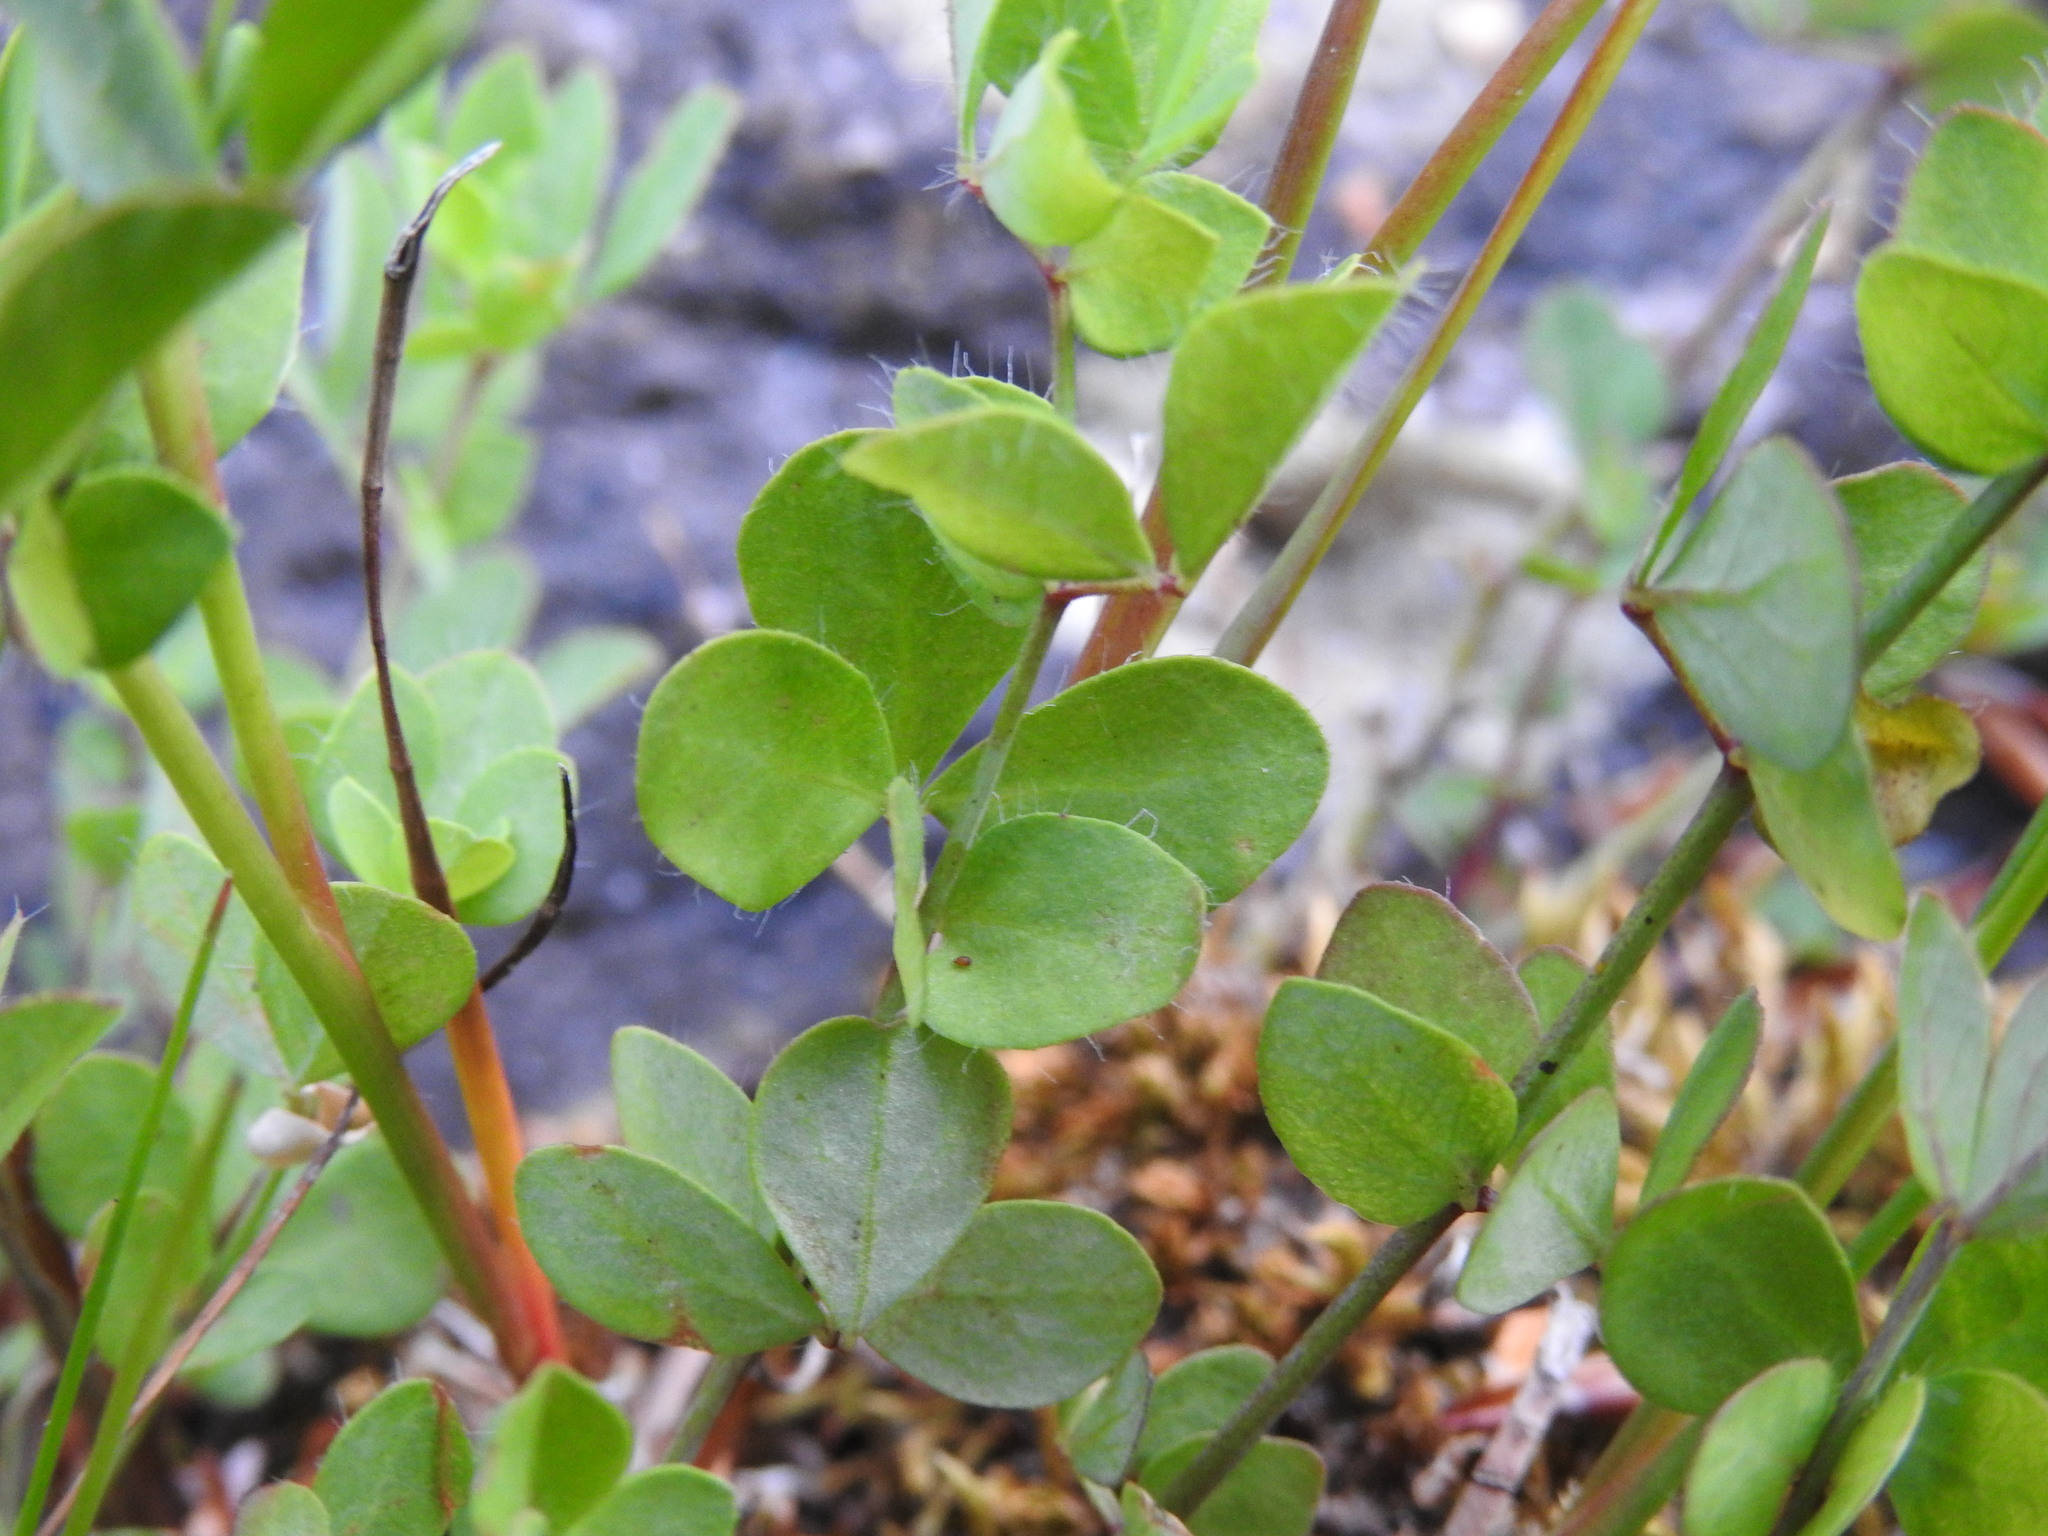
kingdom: Plantae
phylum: Tracheophyta
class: Magnoliopsida
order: Fabales
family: Fabaceae
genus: Lotus
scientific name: Lotus pedunculatus
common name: Greater birdsfoot-trefoil
